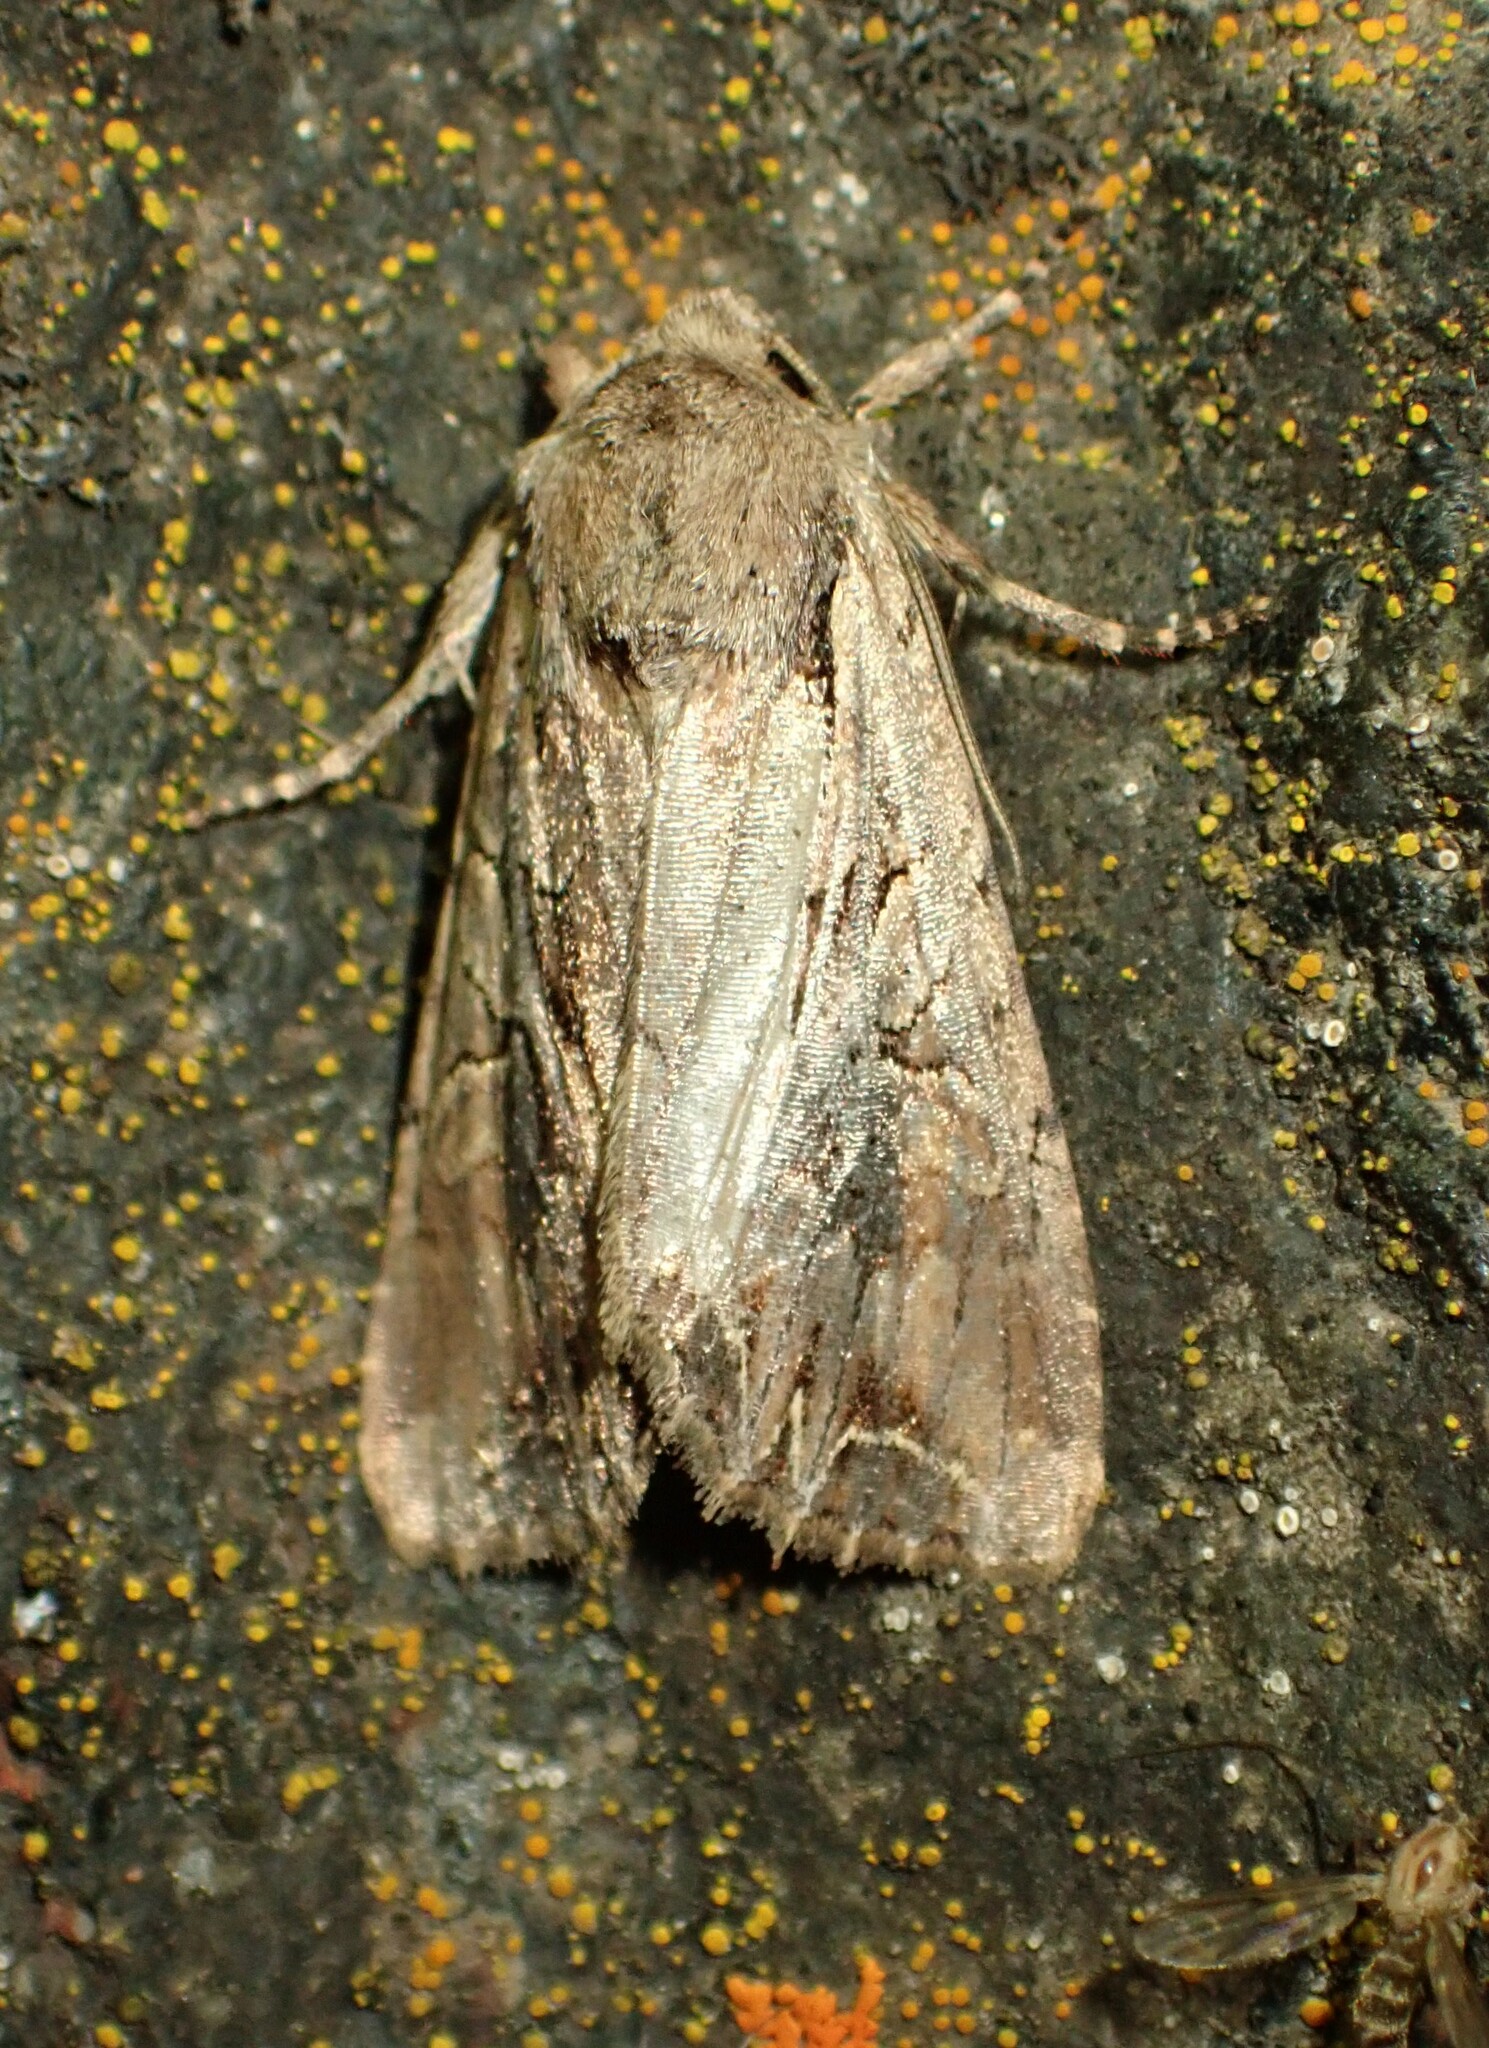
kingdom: Animalia
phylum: Arthropoda
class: Insecta
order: Lepidoptera
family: Noctuidae
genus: Lacanobia
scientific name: Lacanobia atlantica
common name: Atlantic arches moth
